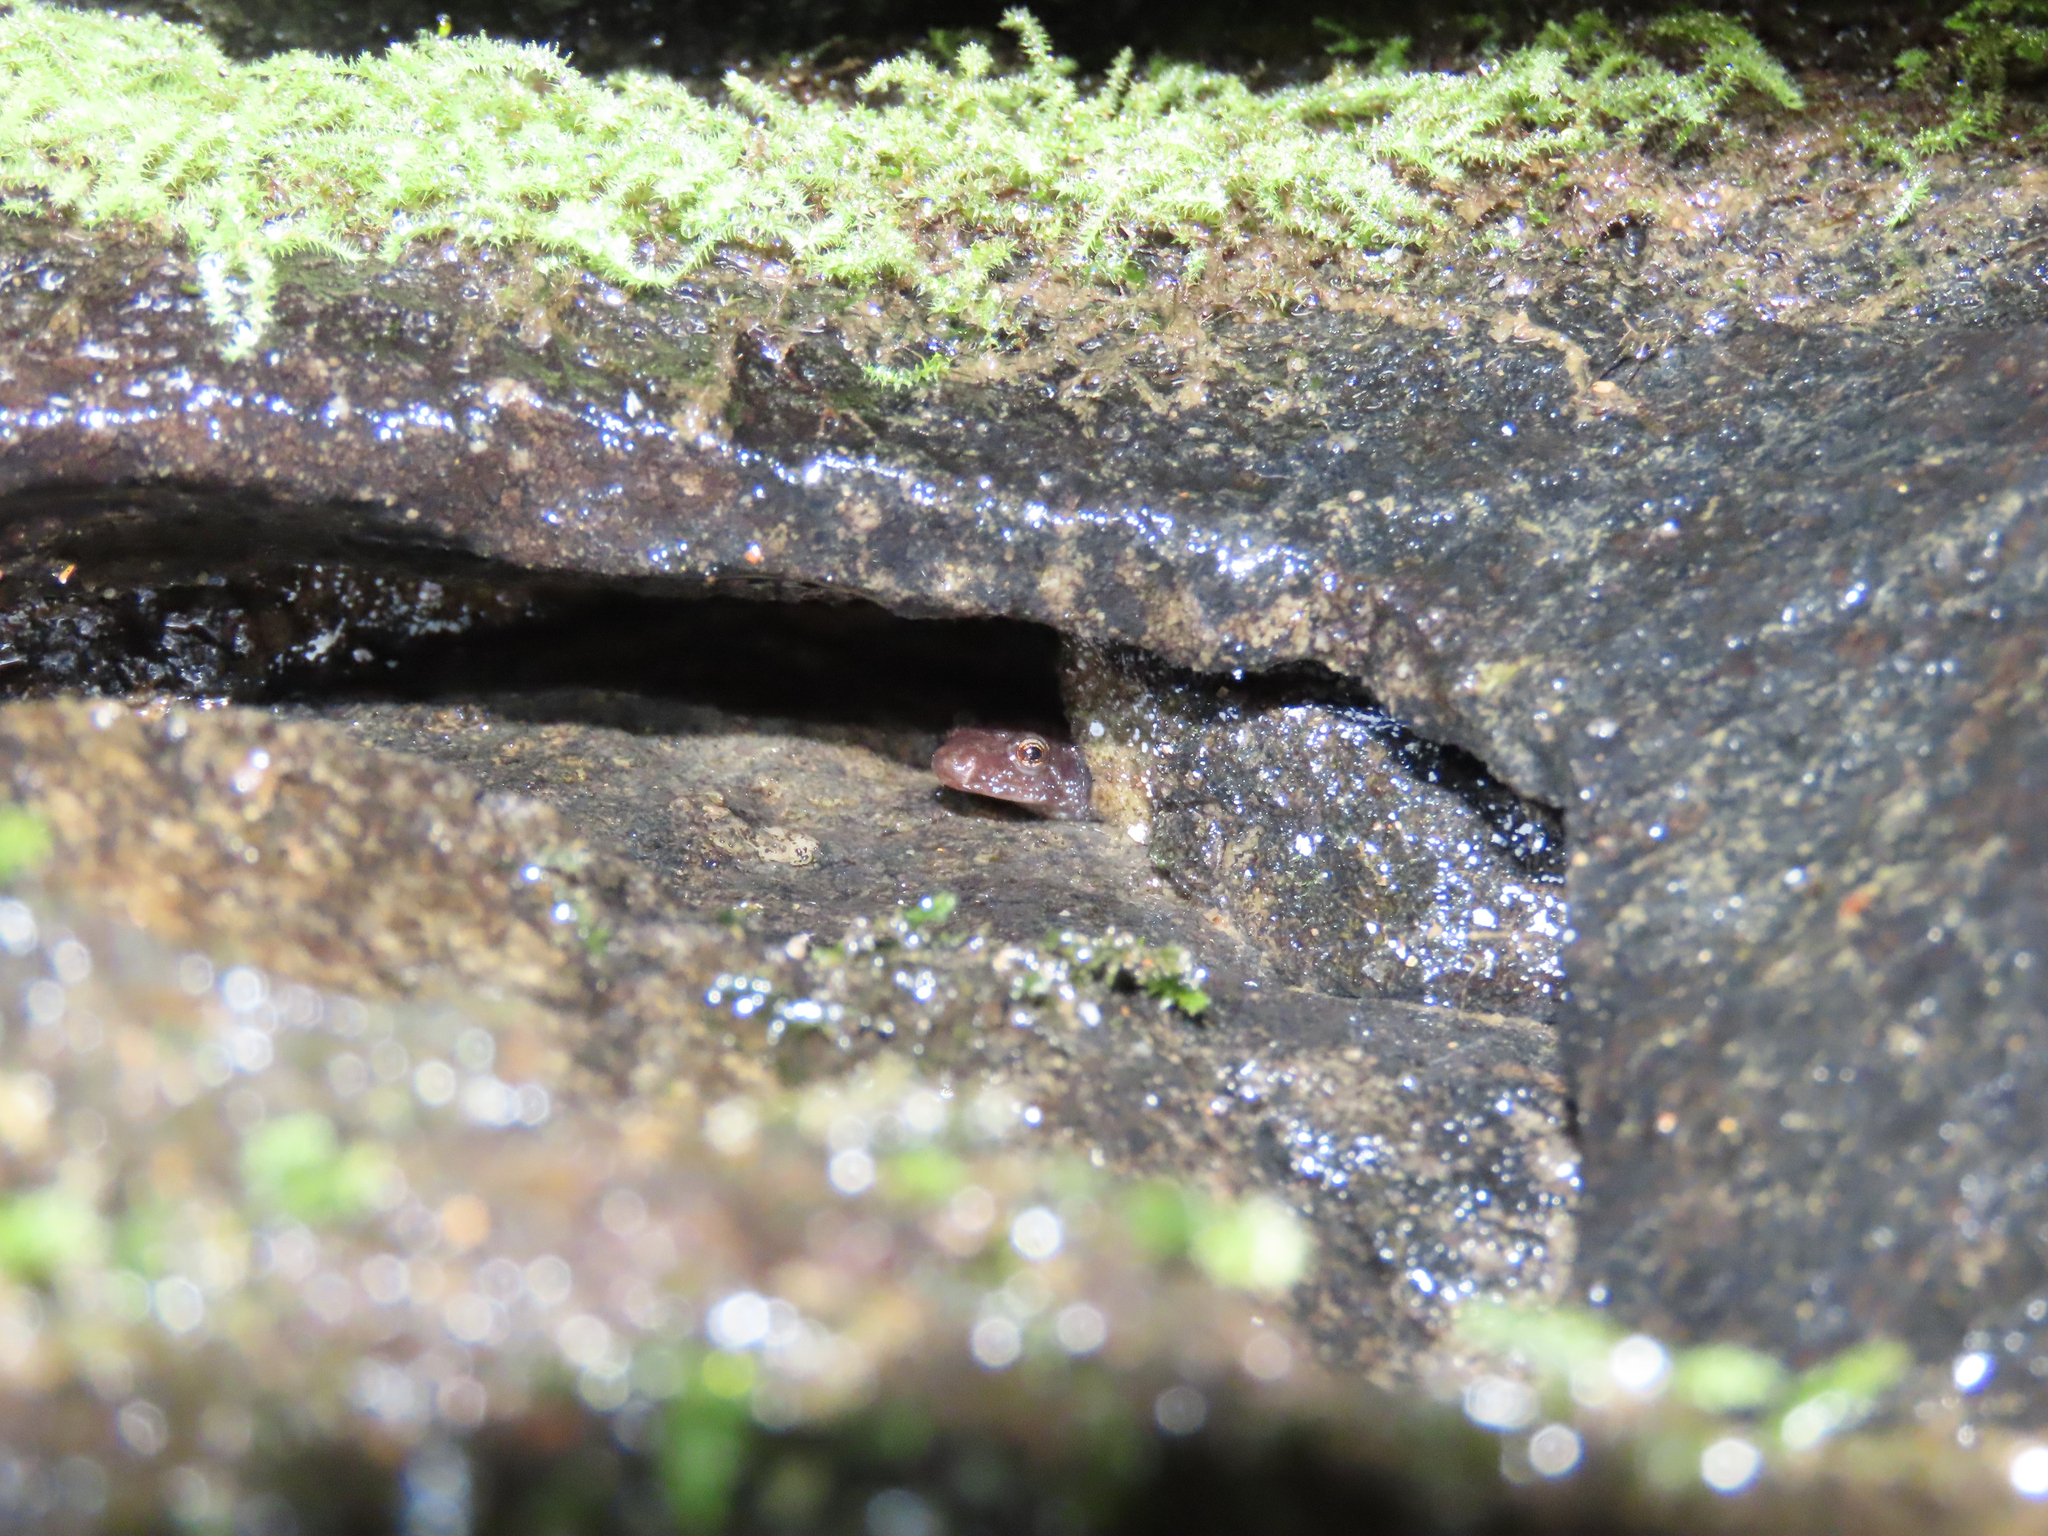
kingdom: Animalia
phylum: Chordata
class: Amphibia
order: Caudata
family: Plethodontidae
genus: Desmognathus
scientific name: Desmognathus ochrophaeus
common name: Allegheny mountain dusky salamander
